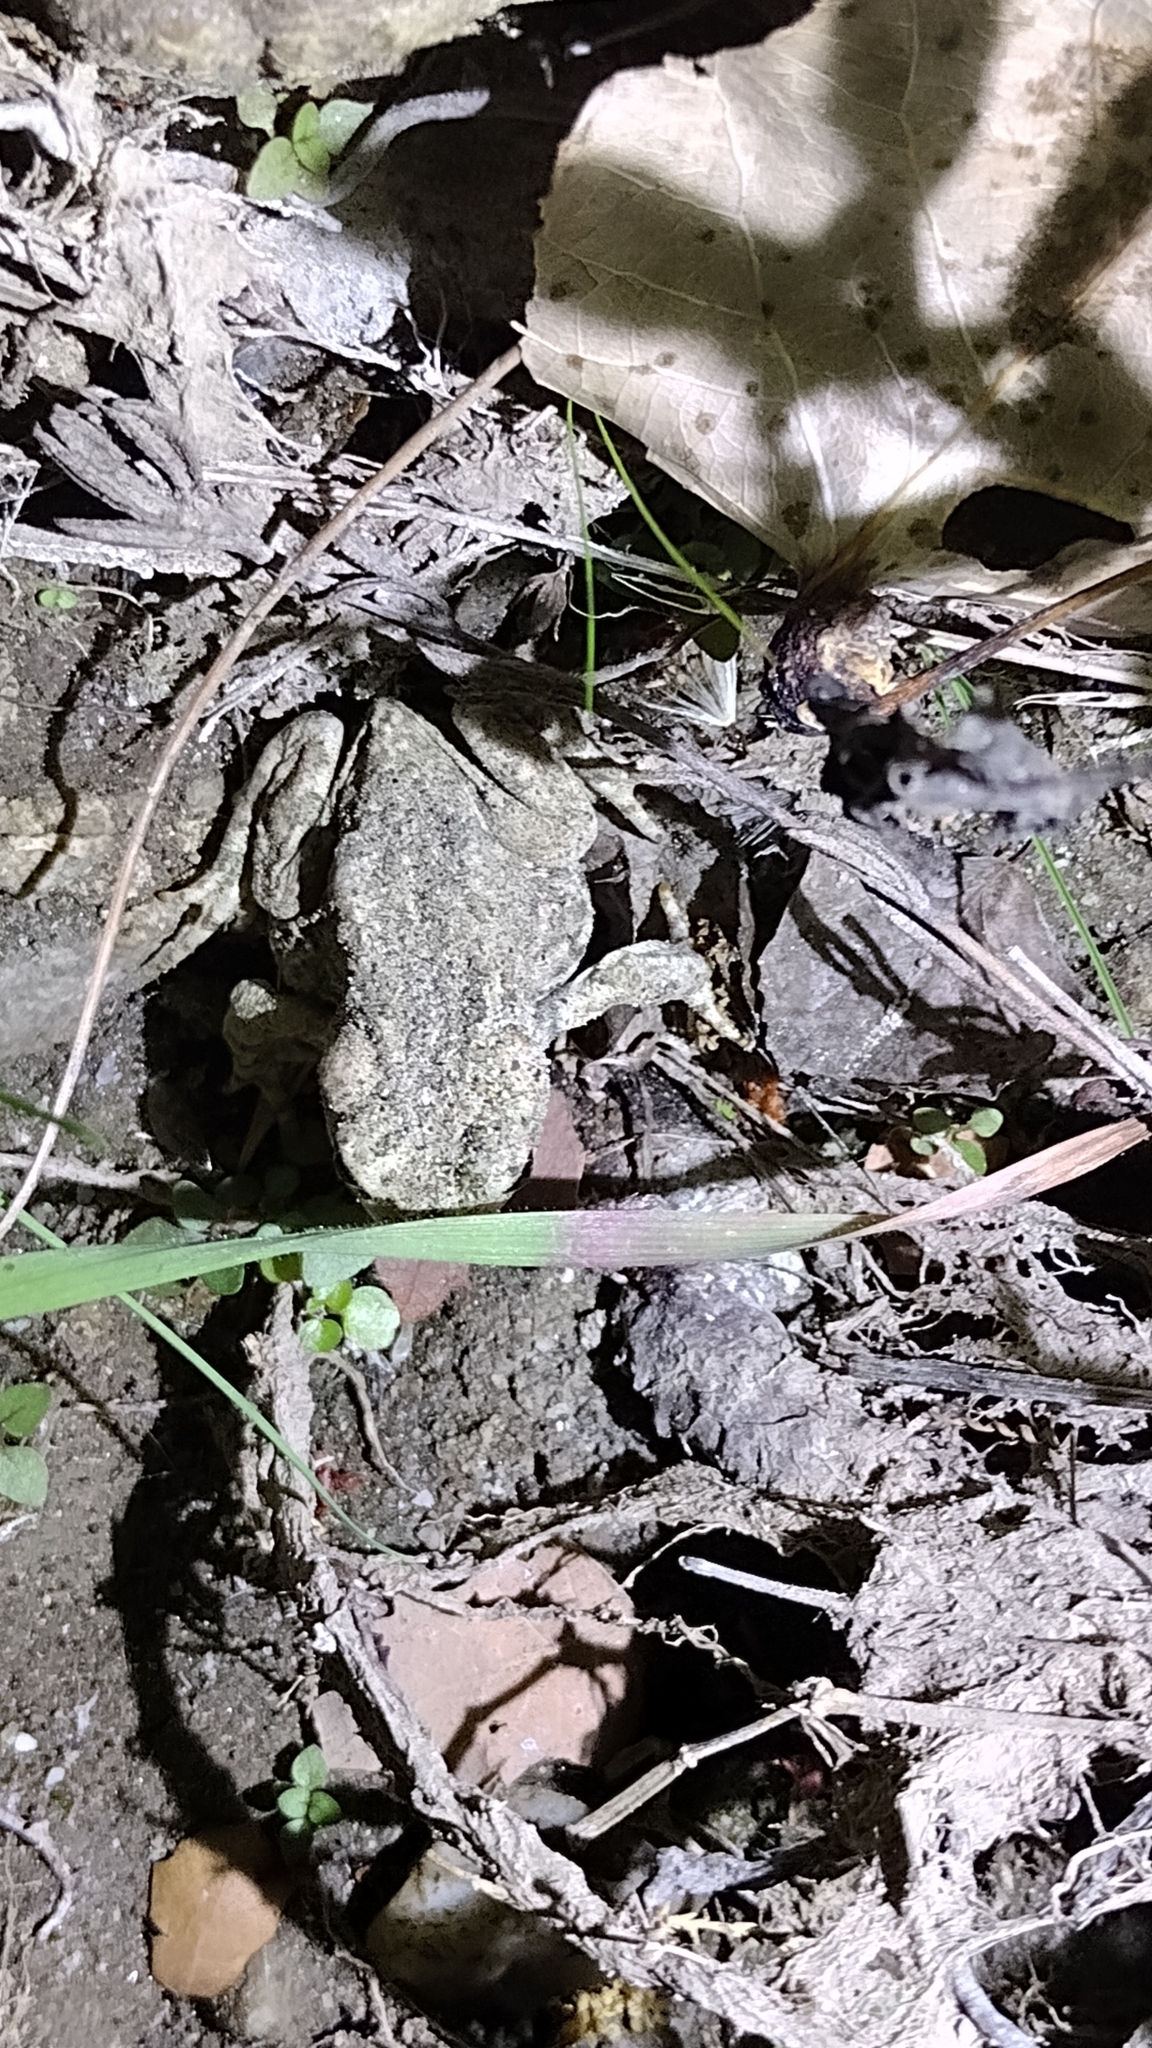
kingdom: Animalia
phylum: Chordata
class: Amphibia
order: Anura
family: Bufonidae
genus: Anaxyrus
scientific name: Anaxyrus californicus
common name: Arroyo toad
